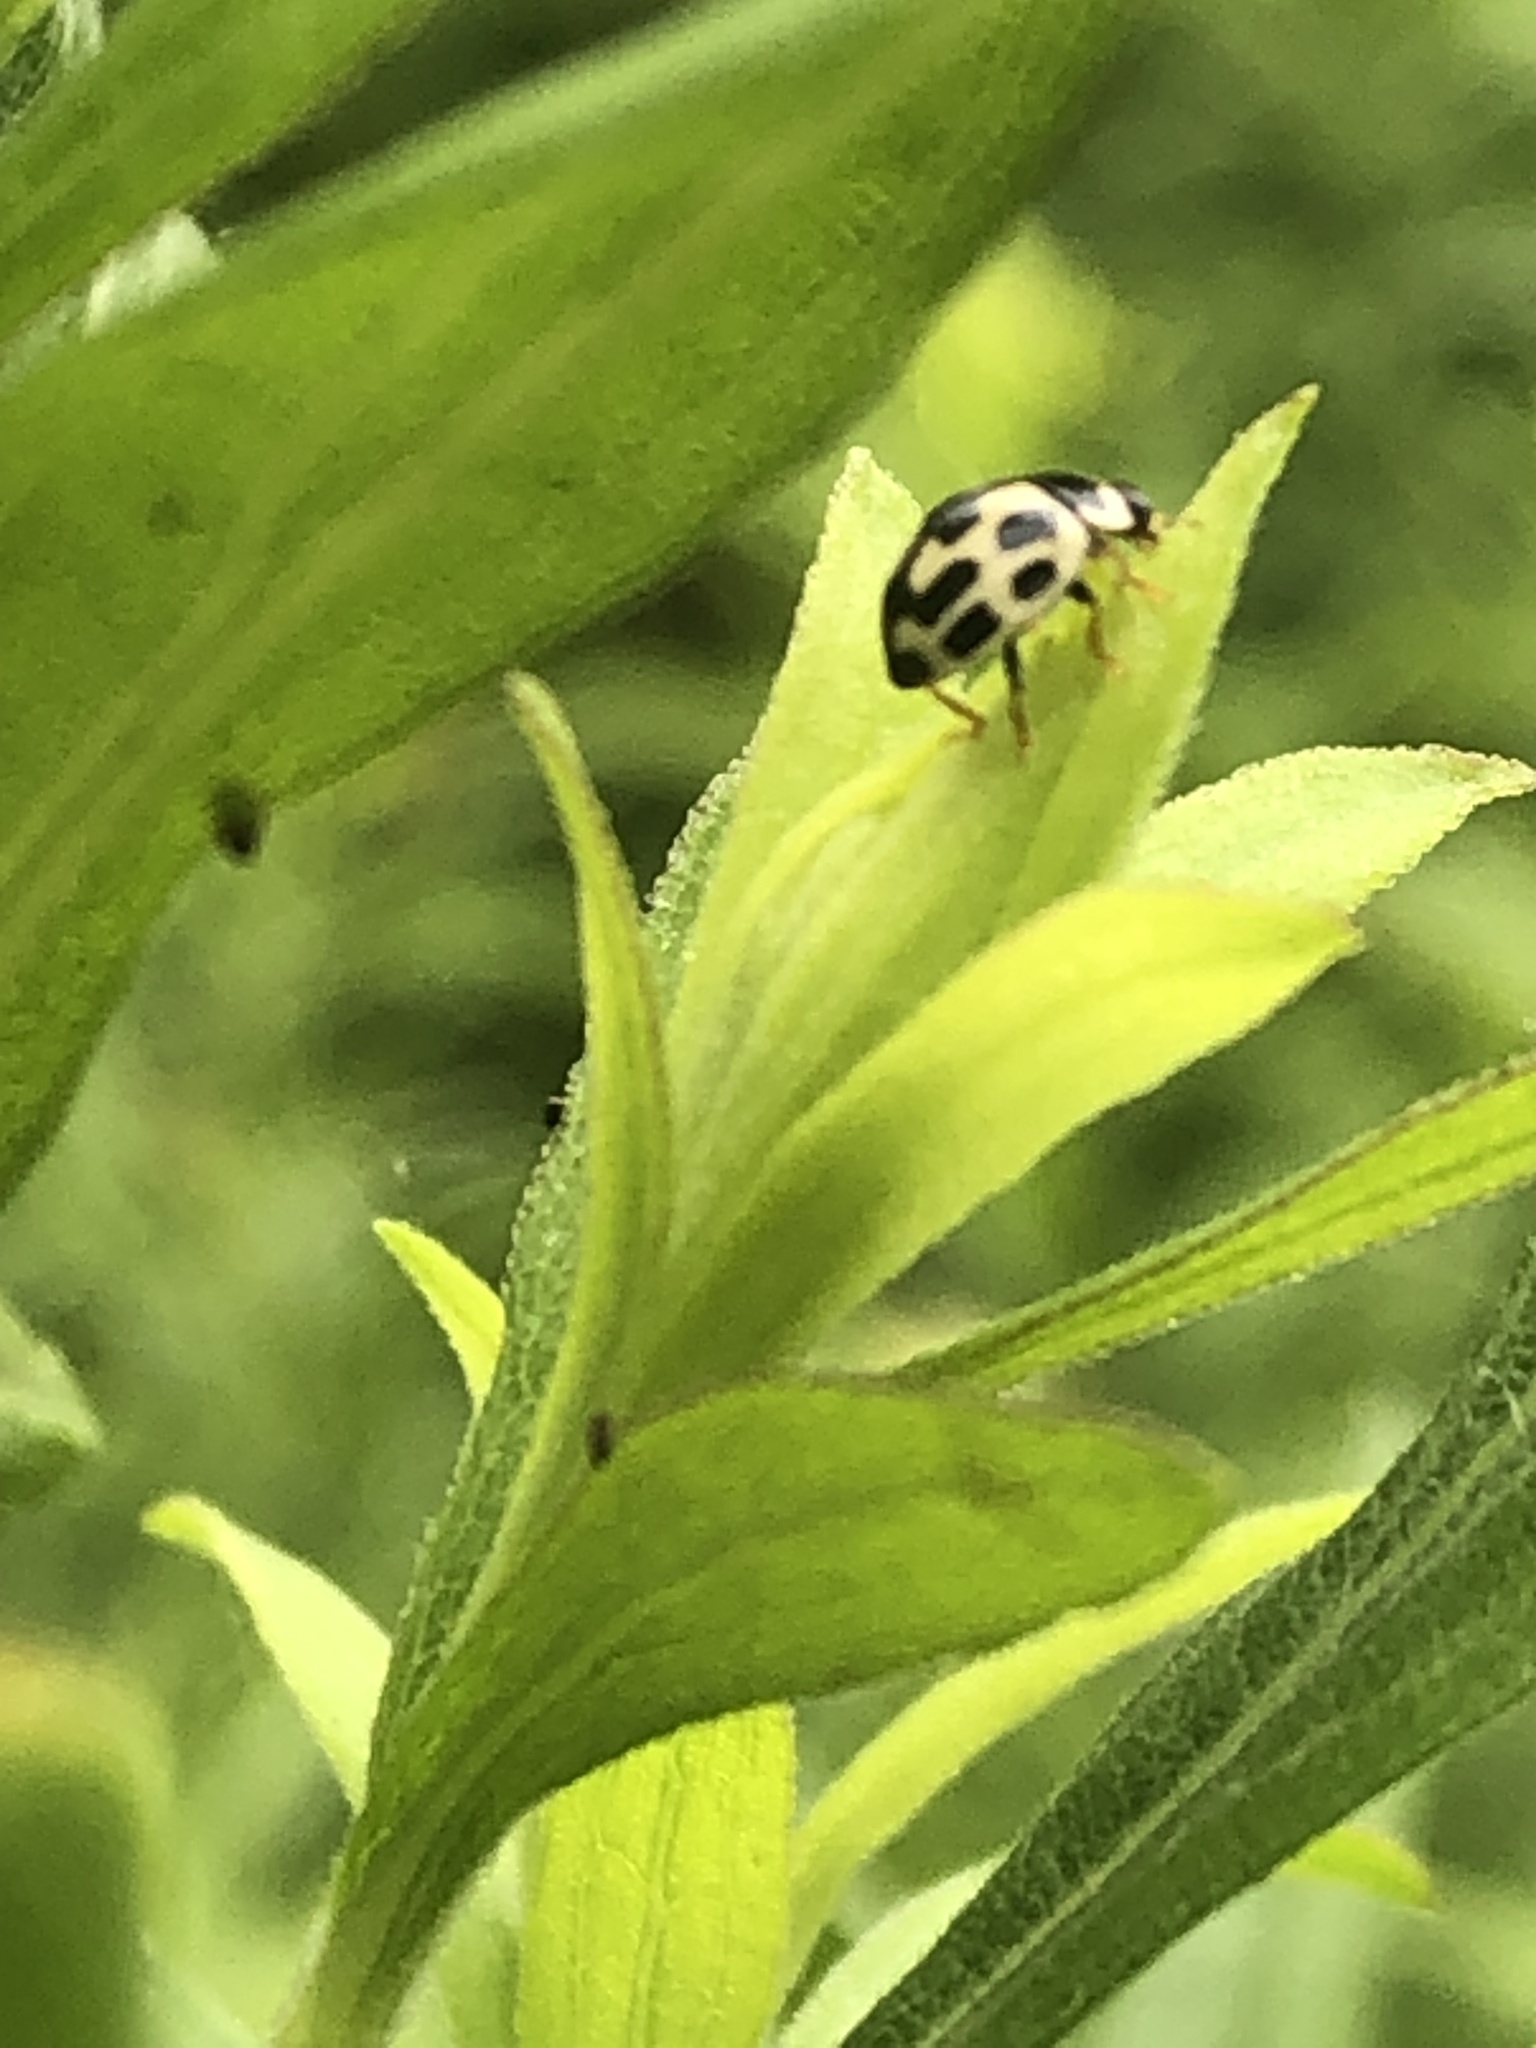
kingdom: Animalia
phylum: Arthropoda
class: Insecta
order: Coleoptera
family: Coccinellidae
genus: Propylaea
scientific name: Propylaea quatuordecimpunctata
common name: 14-spotted ladybird beetle
